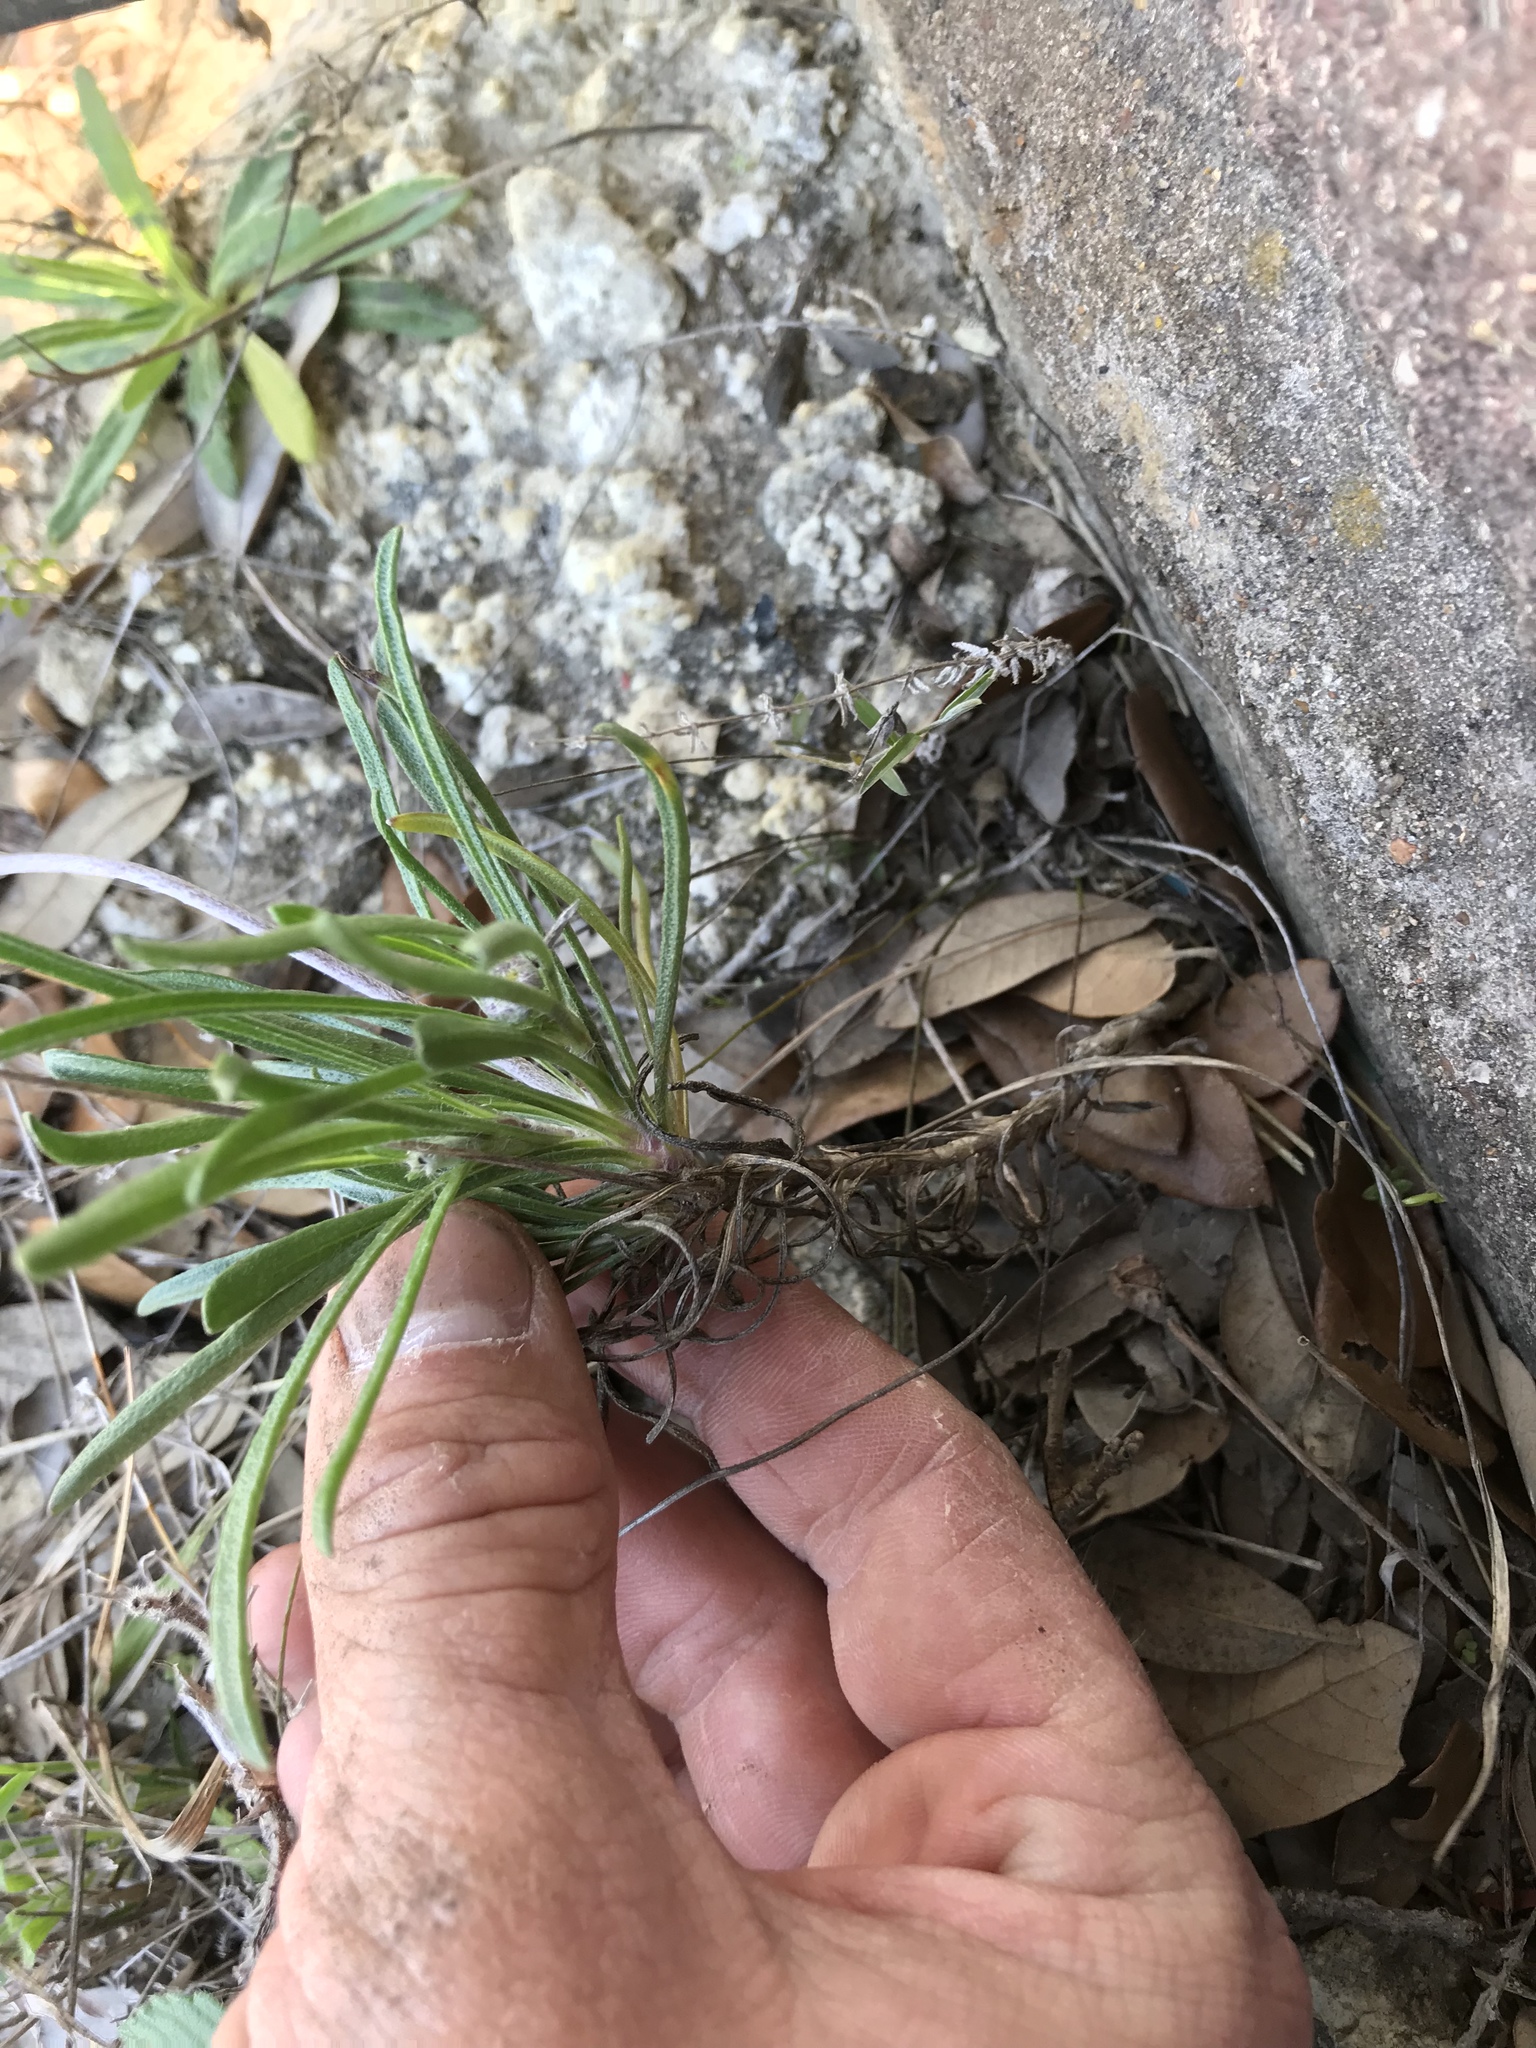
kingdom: Plantae
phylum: Tracheophyta
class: Magnoliopsida
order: Asterales
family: Asteraceae
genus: Tetraneuris
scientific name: Tetraneuris scaposa
